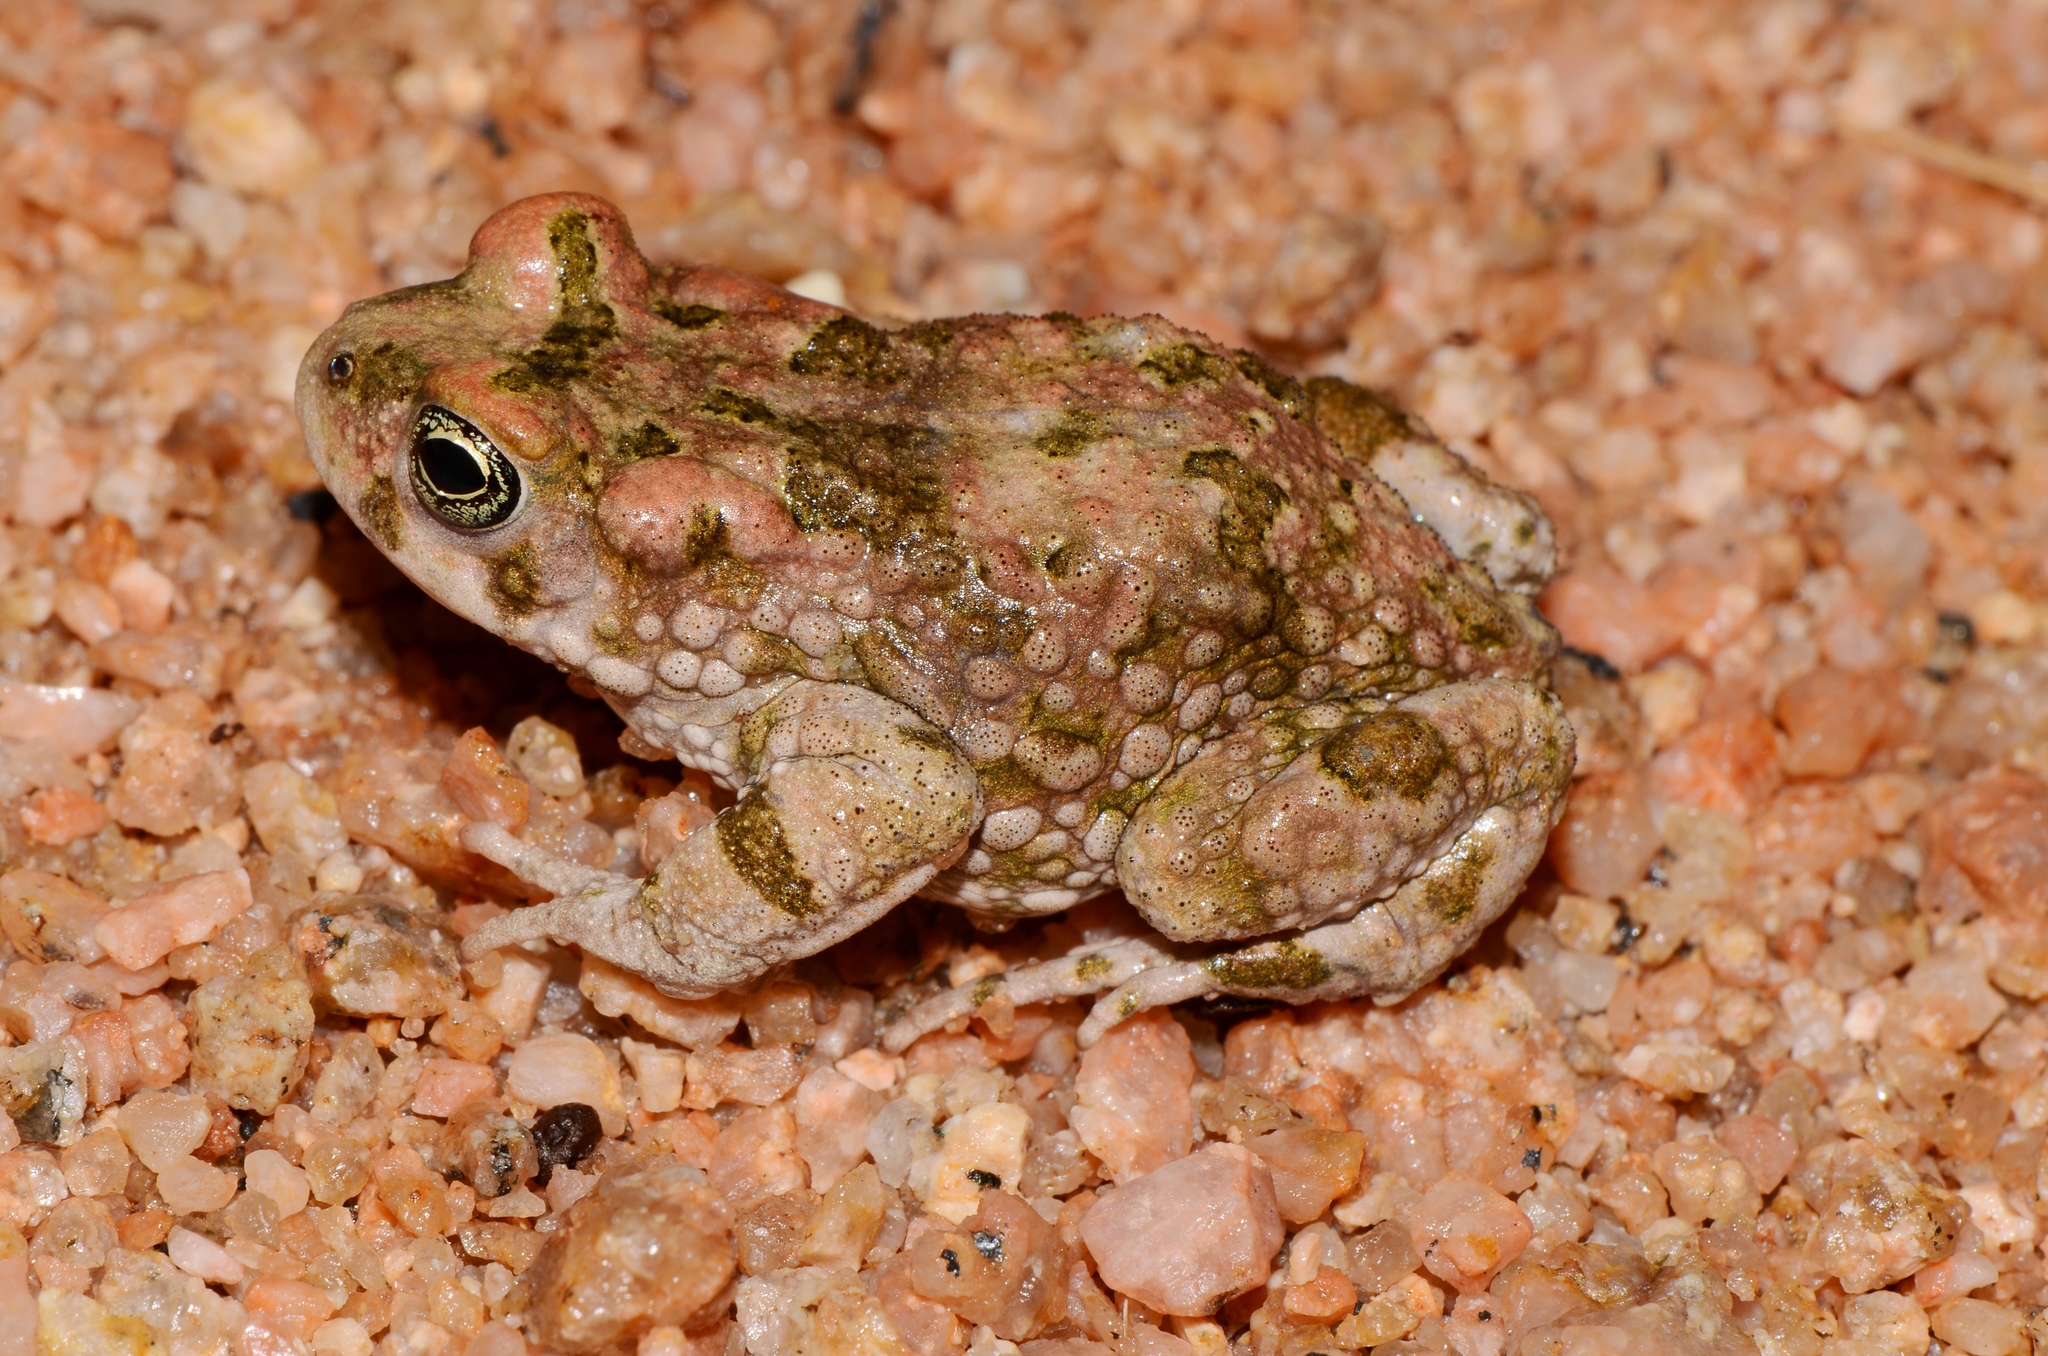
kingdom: Animalia
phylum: Chordata
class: Amphibia
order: Anura
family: Bufonidae
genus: Vandijkophrynus
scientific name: Vandijkophrynus robinsoni
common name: Paradise toad
